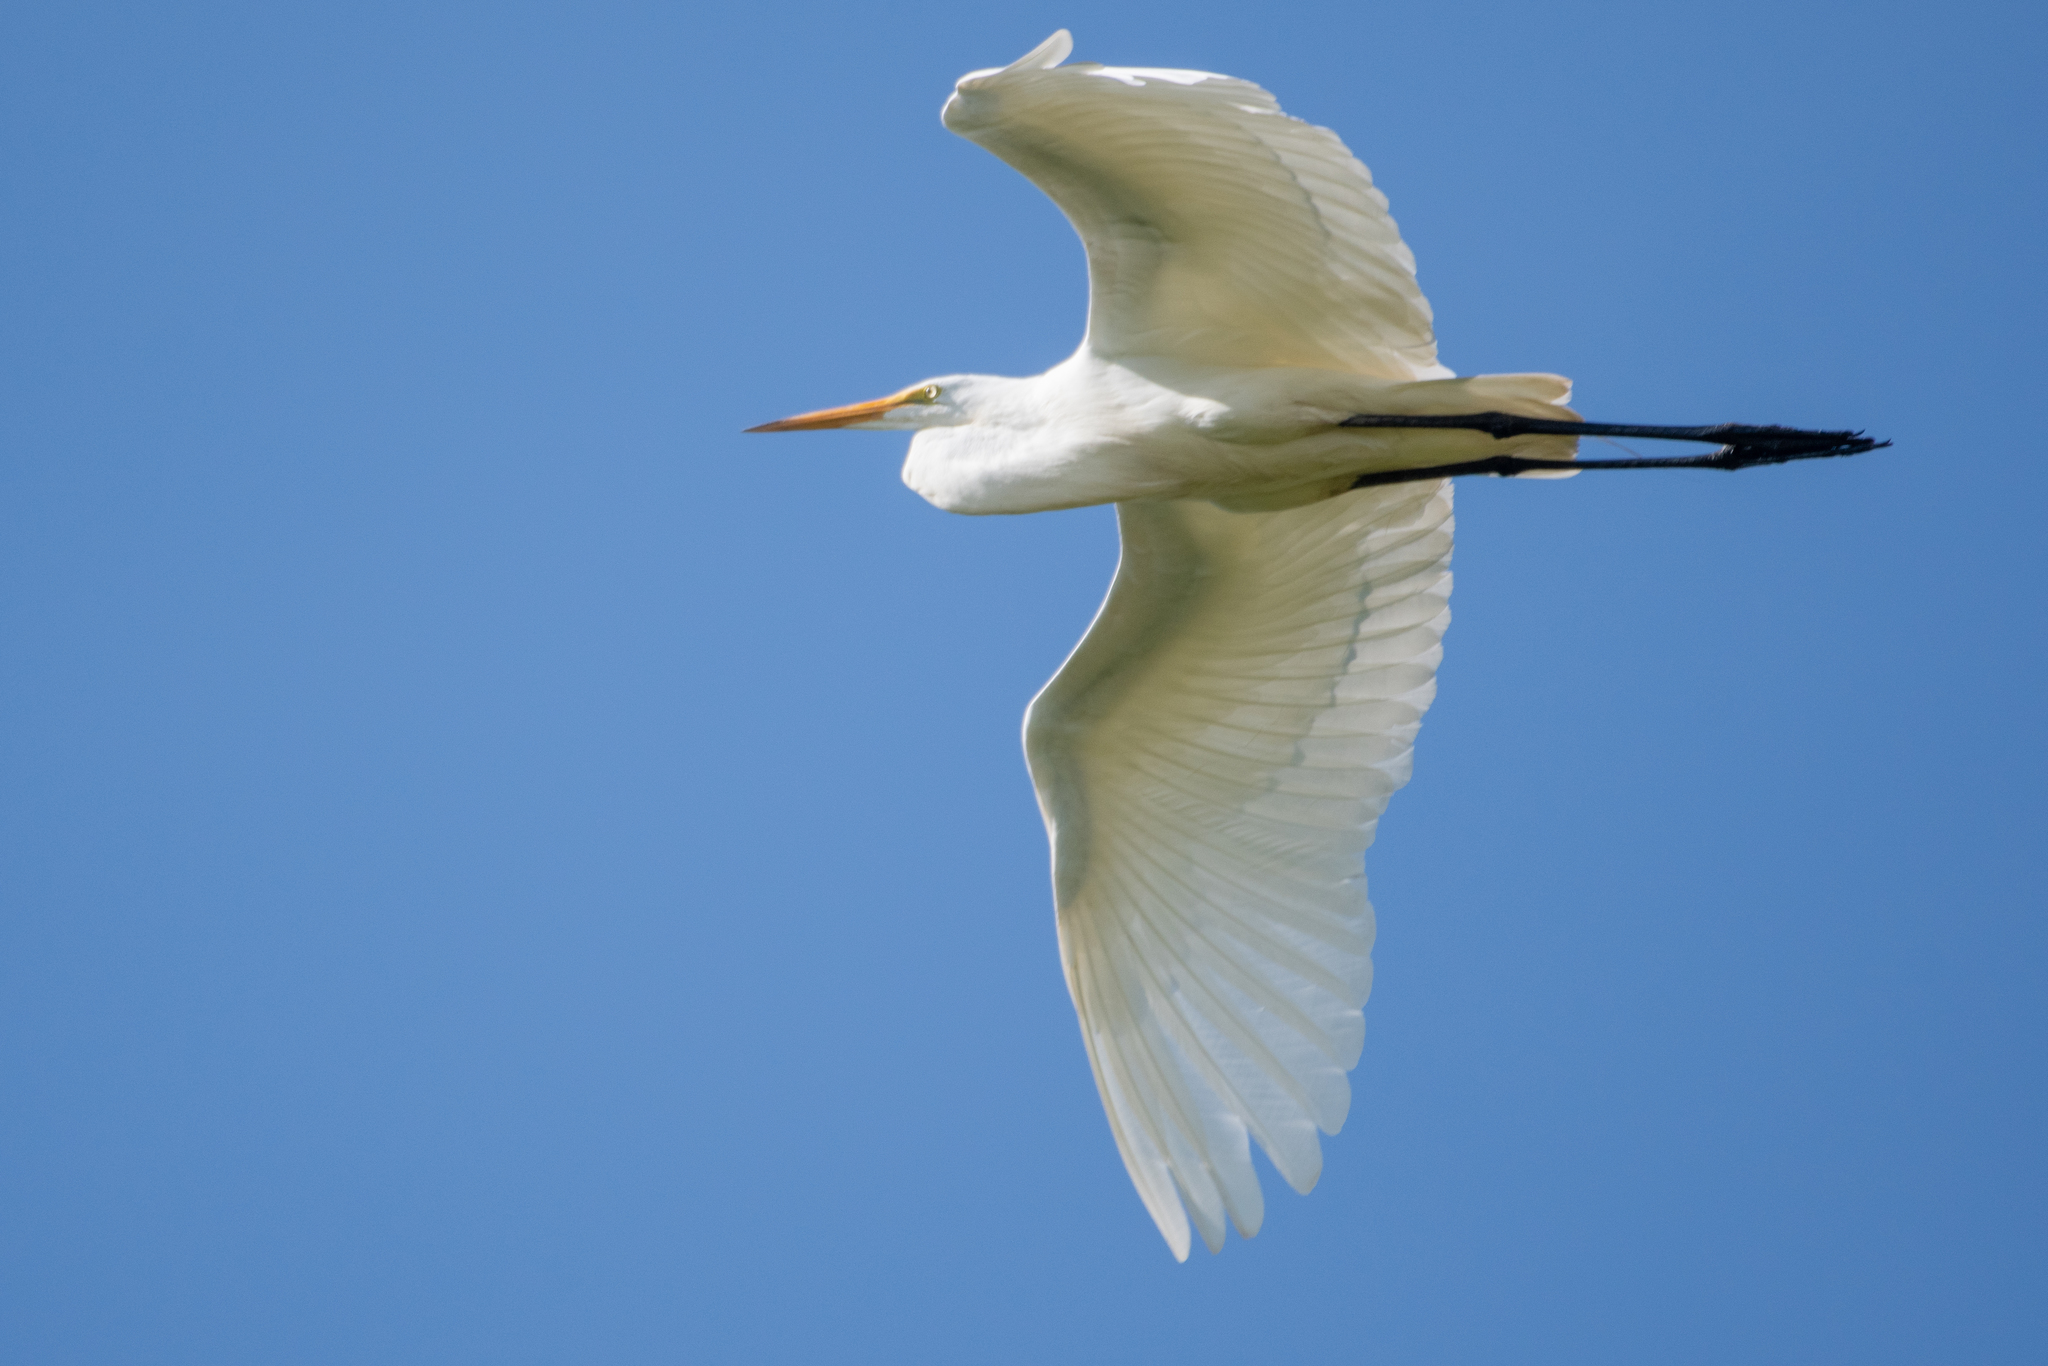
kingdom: Animalia
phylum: Chordata
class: Aves
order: Pelecaniformes
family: Ardeidae
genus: Ardea
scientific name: Ardea alba
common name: Great egret
